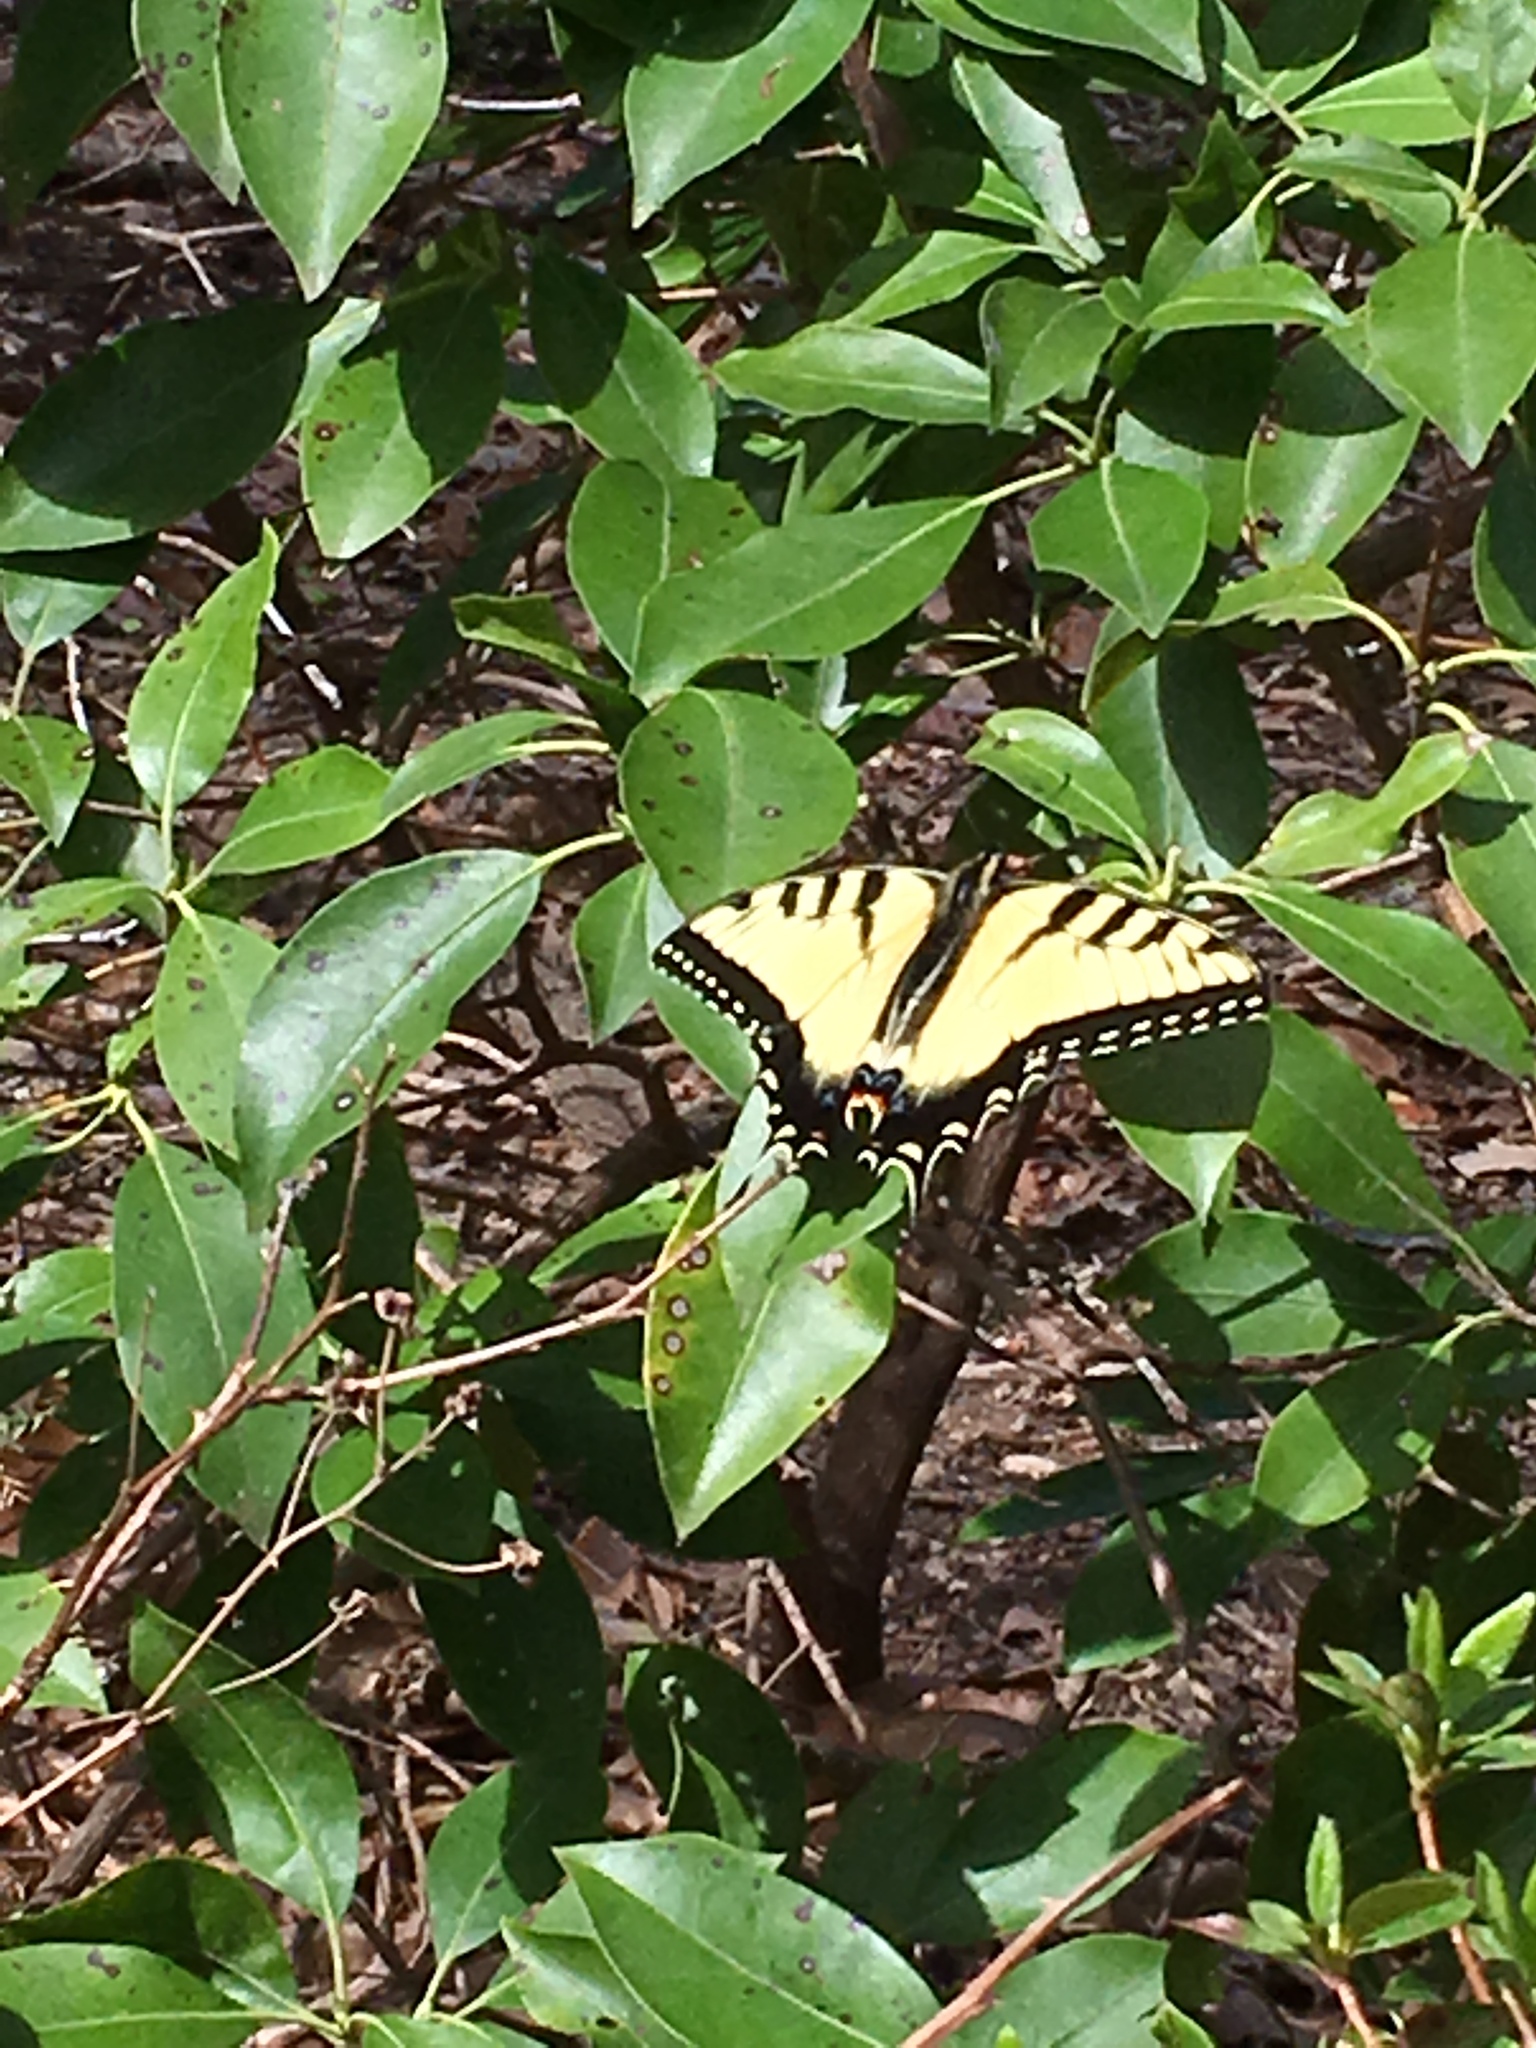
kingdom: Animalia
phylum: Arthropoda
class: Insecta
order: Lepidoptera
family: Papilionidae
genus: Papilio
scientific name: Papilio glaucus
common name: Tiger swallowtail
